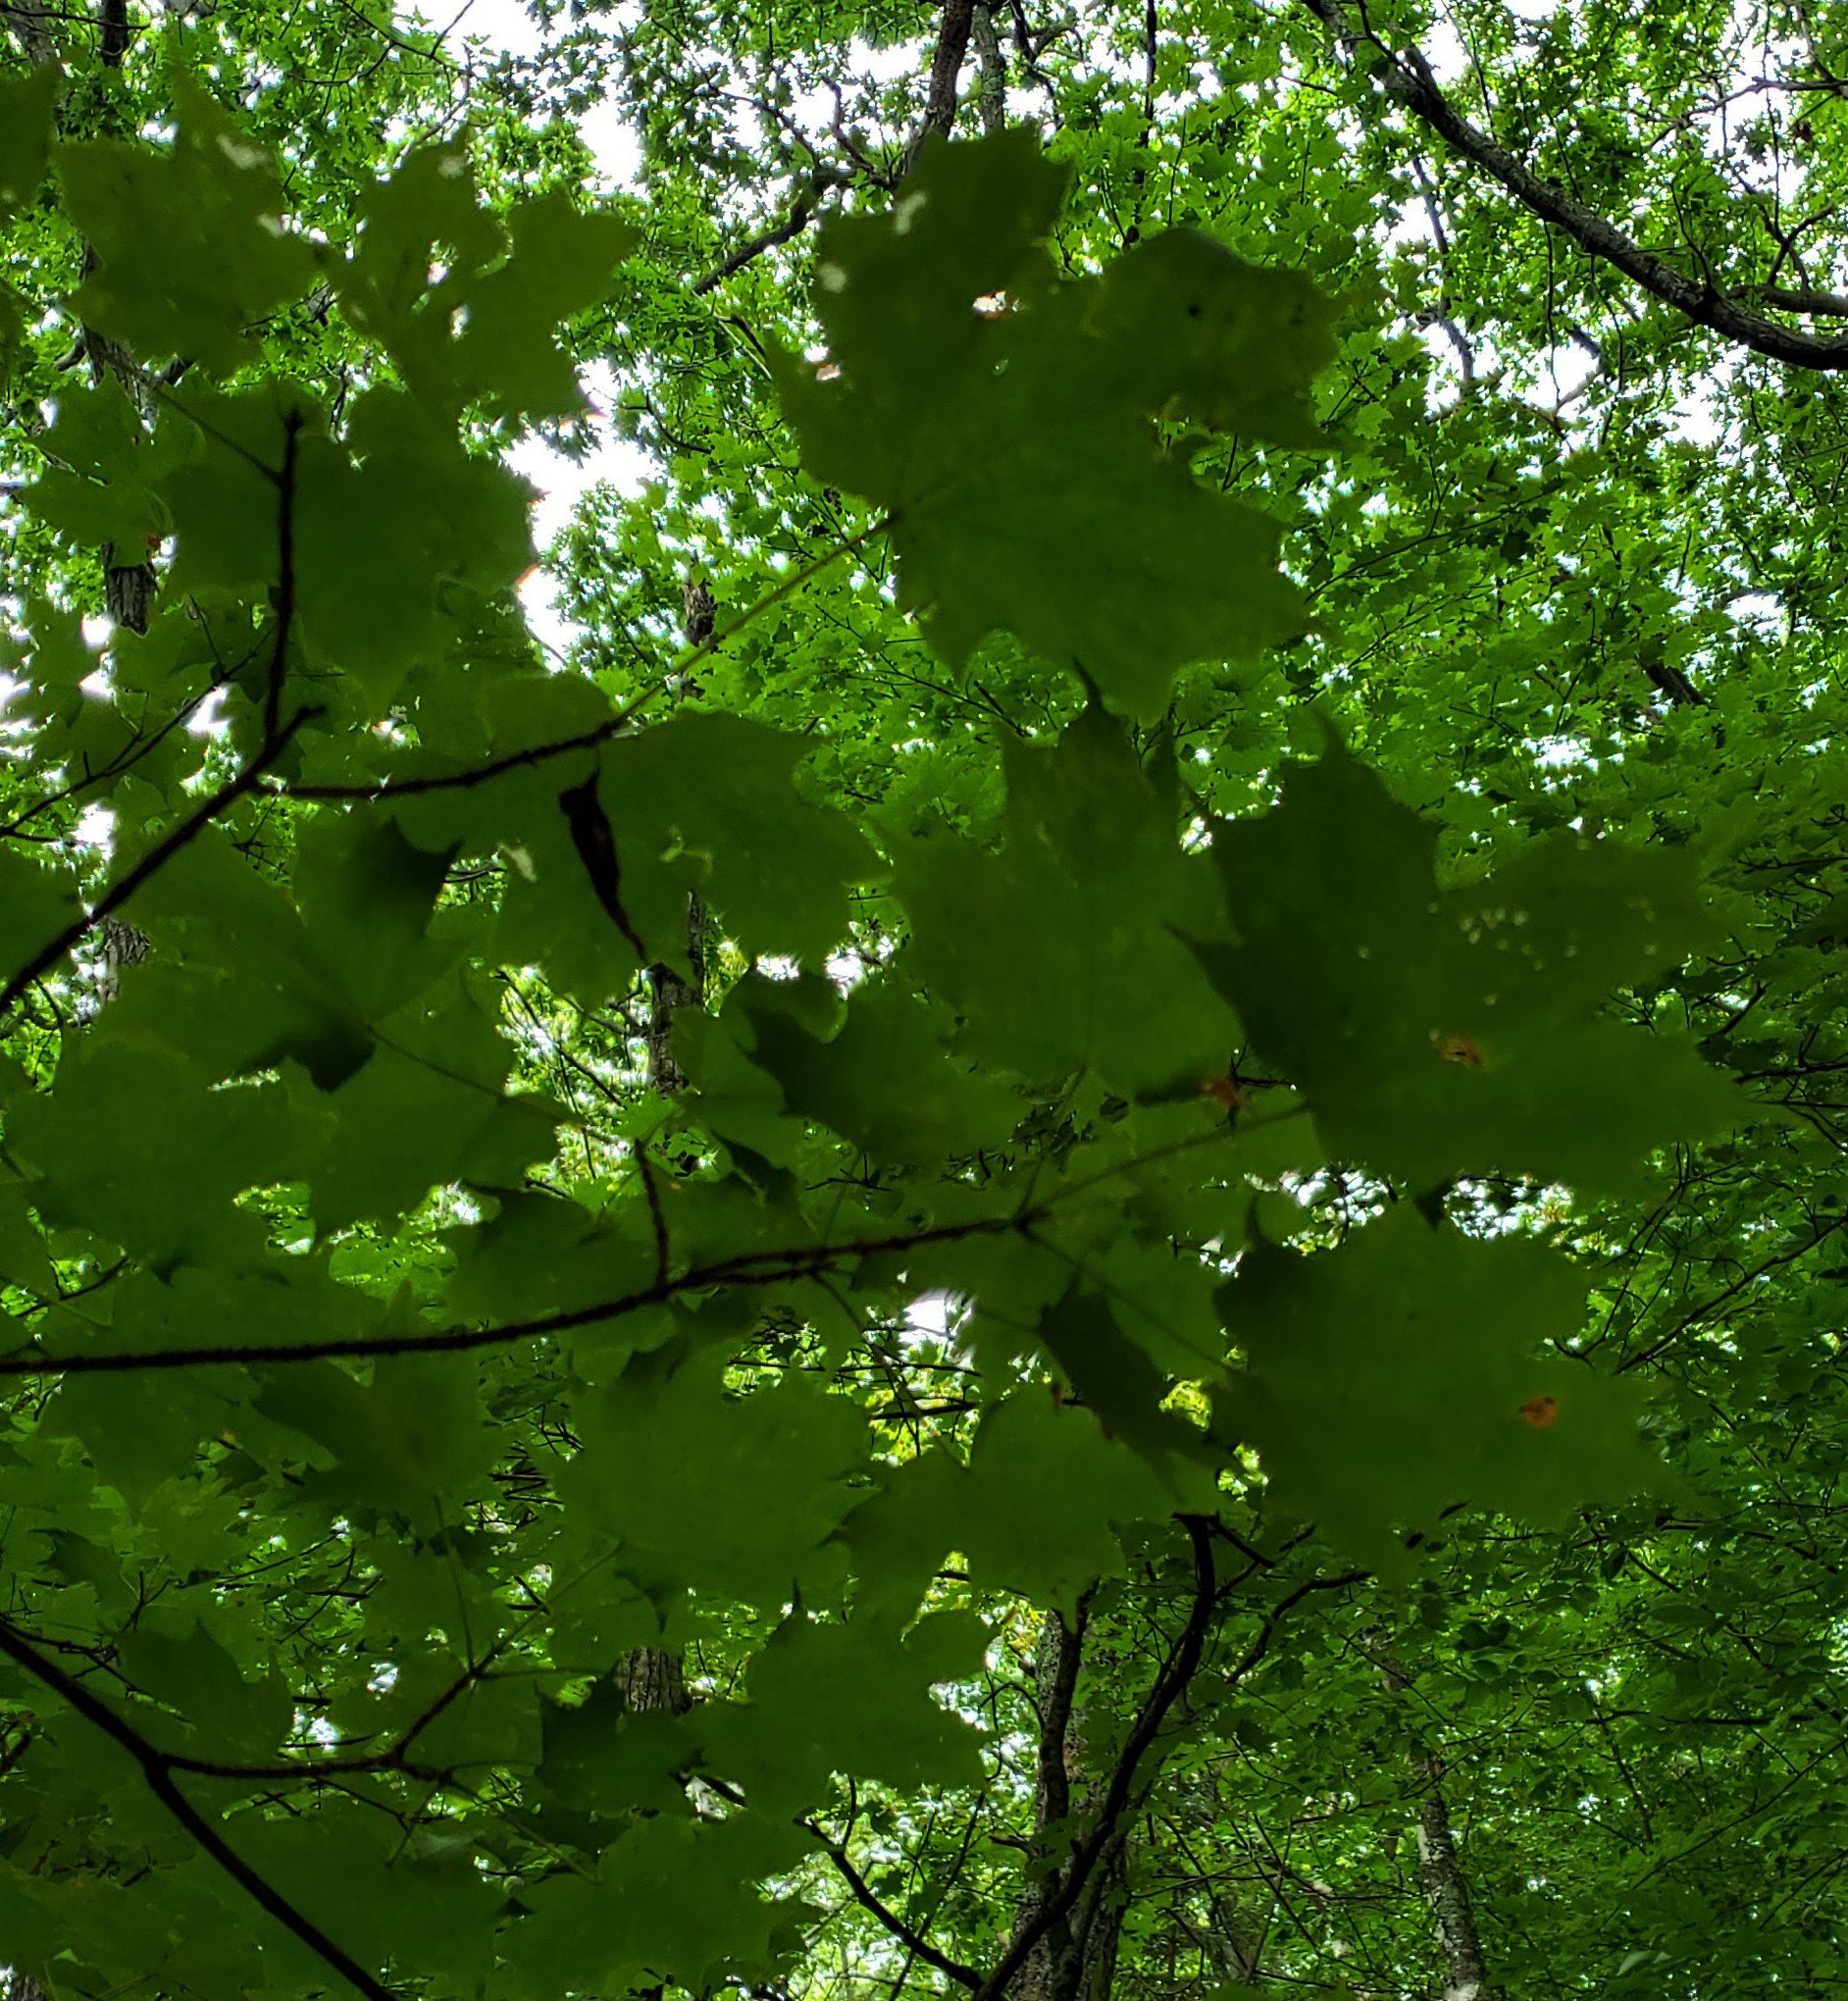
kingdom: Plantae
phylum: Tracheophyta
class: Magnoliopsida
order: Sapindales
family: Sapindaceae
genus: Acer
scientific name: Acer saccharum
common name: Sugar maple
